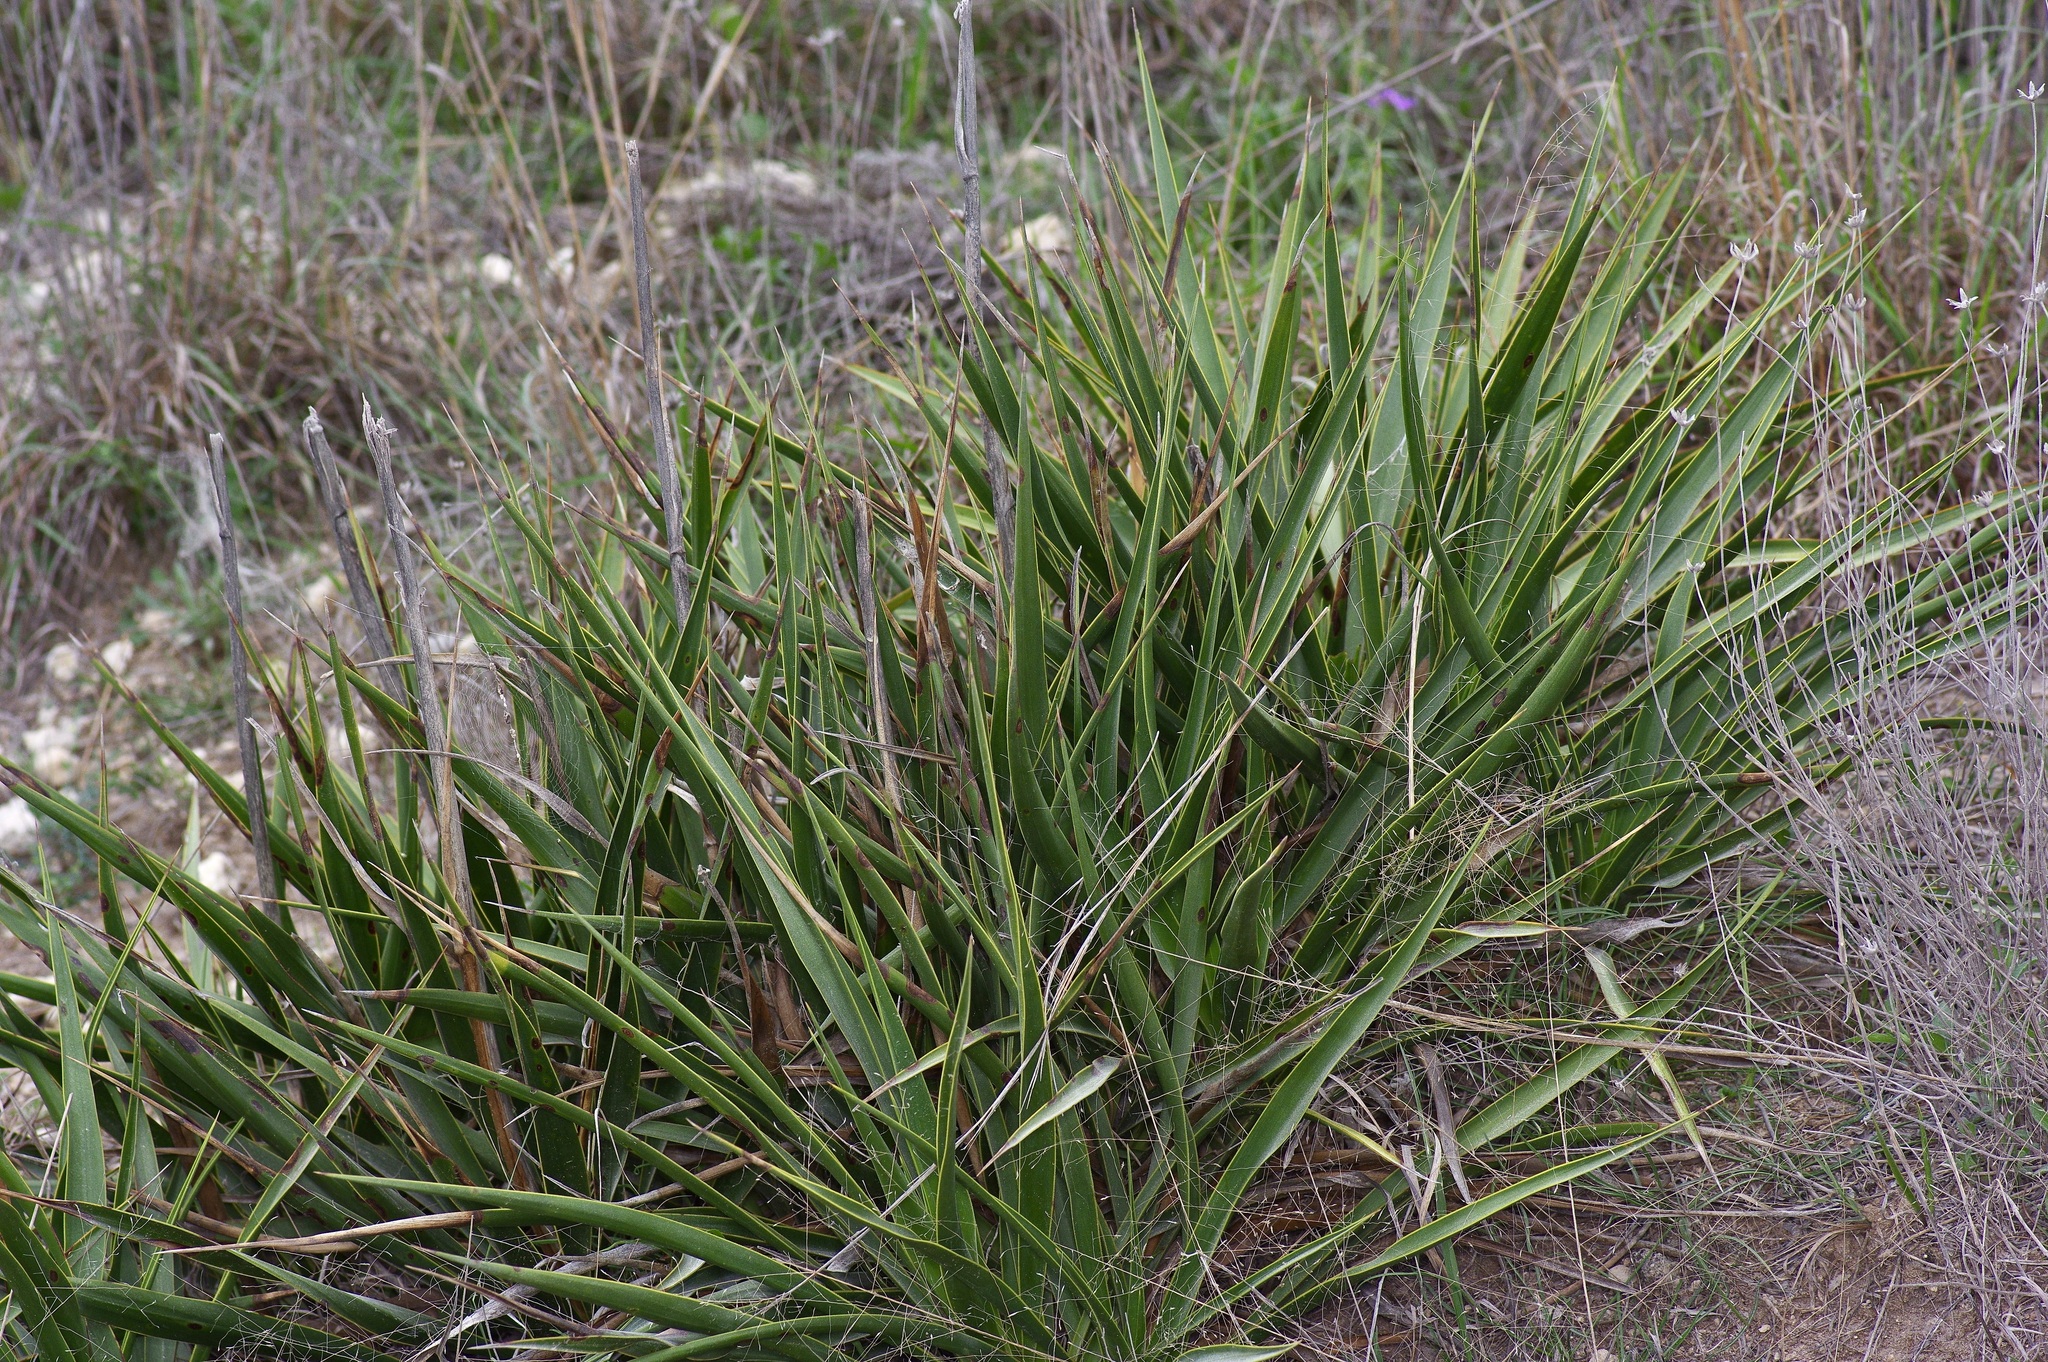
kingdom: Plantae
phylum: Tracheophyta
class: Liliopsida
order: Asparagales
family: Asparagaceae
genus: Yucca
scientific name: Yucca rupicola
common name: Twisted-leaf spanish-dagger
